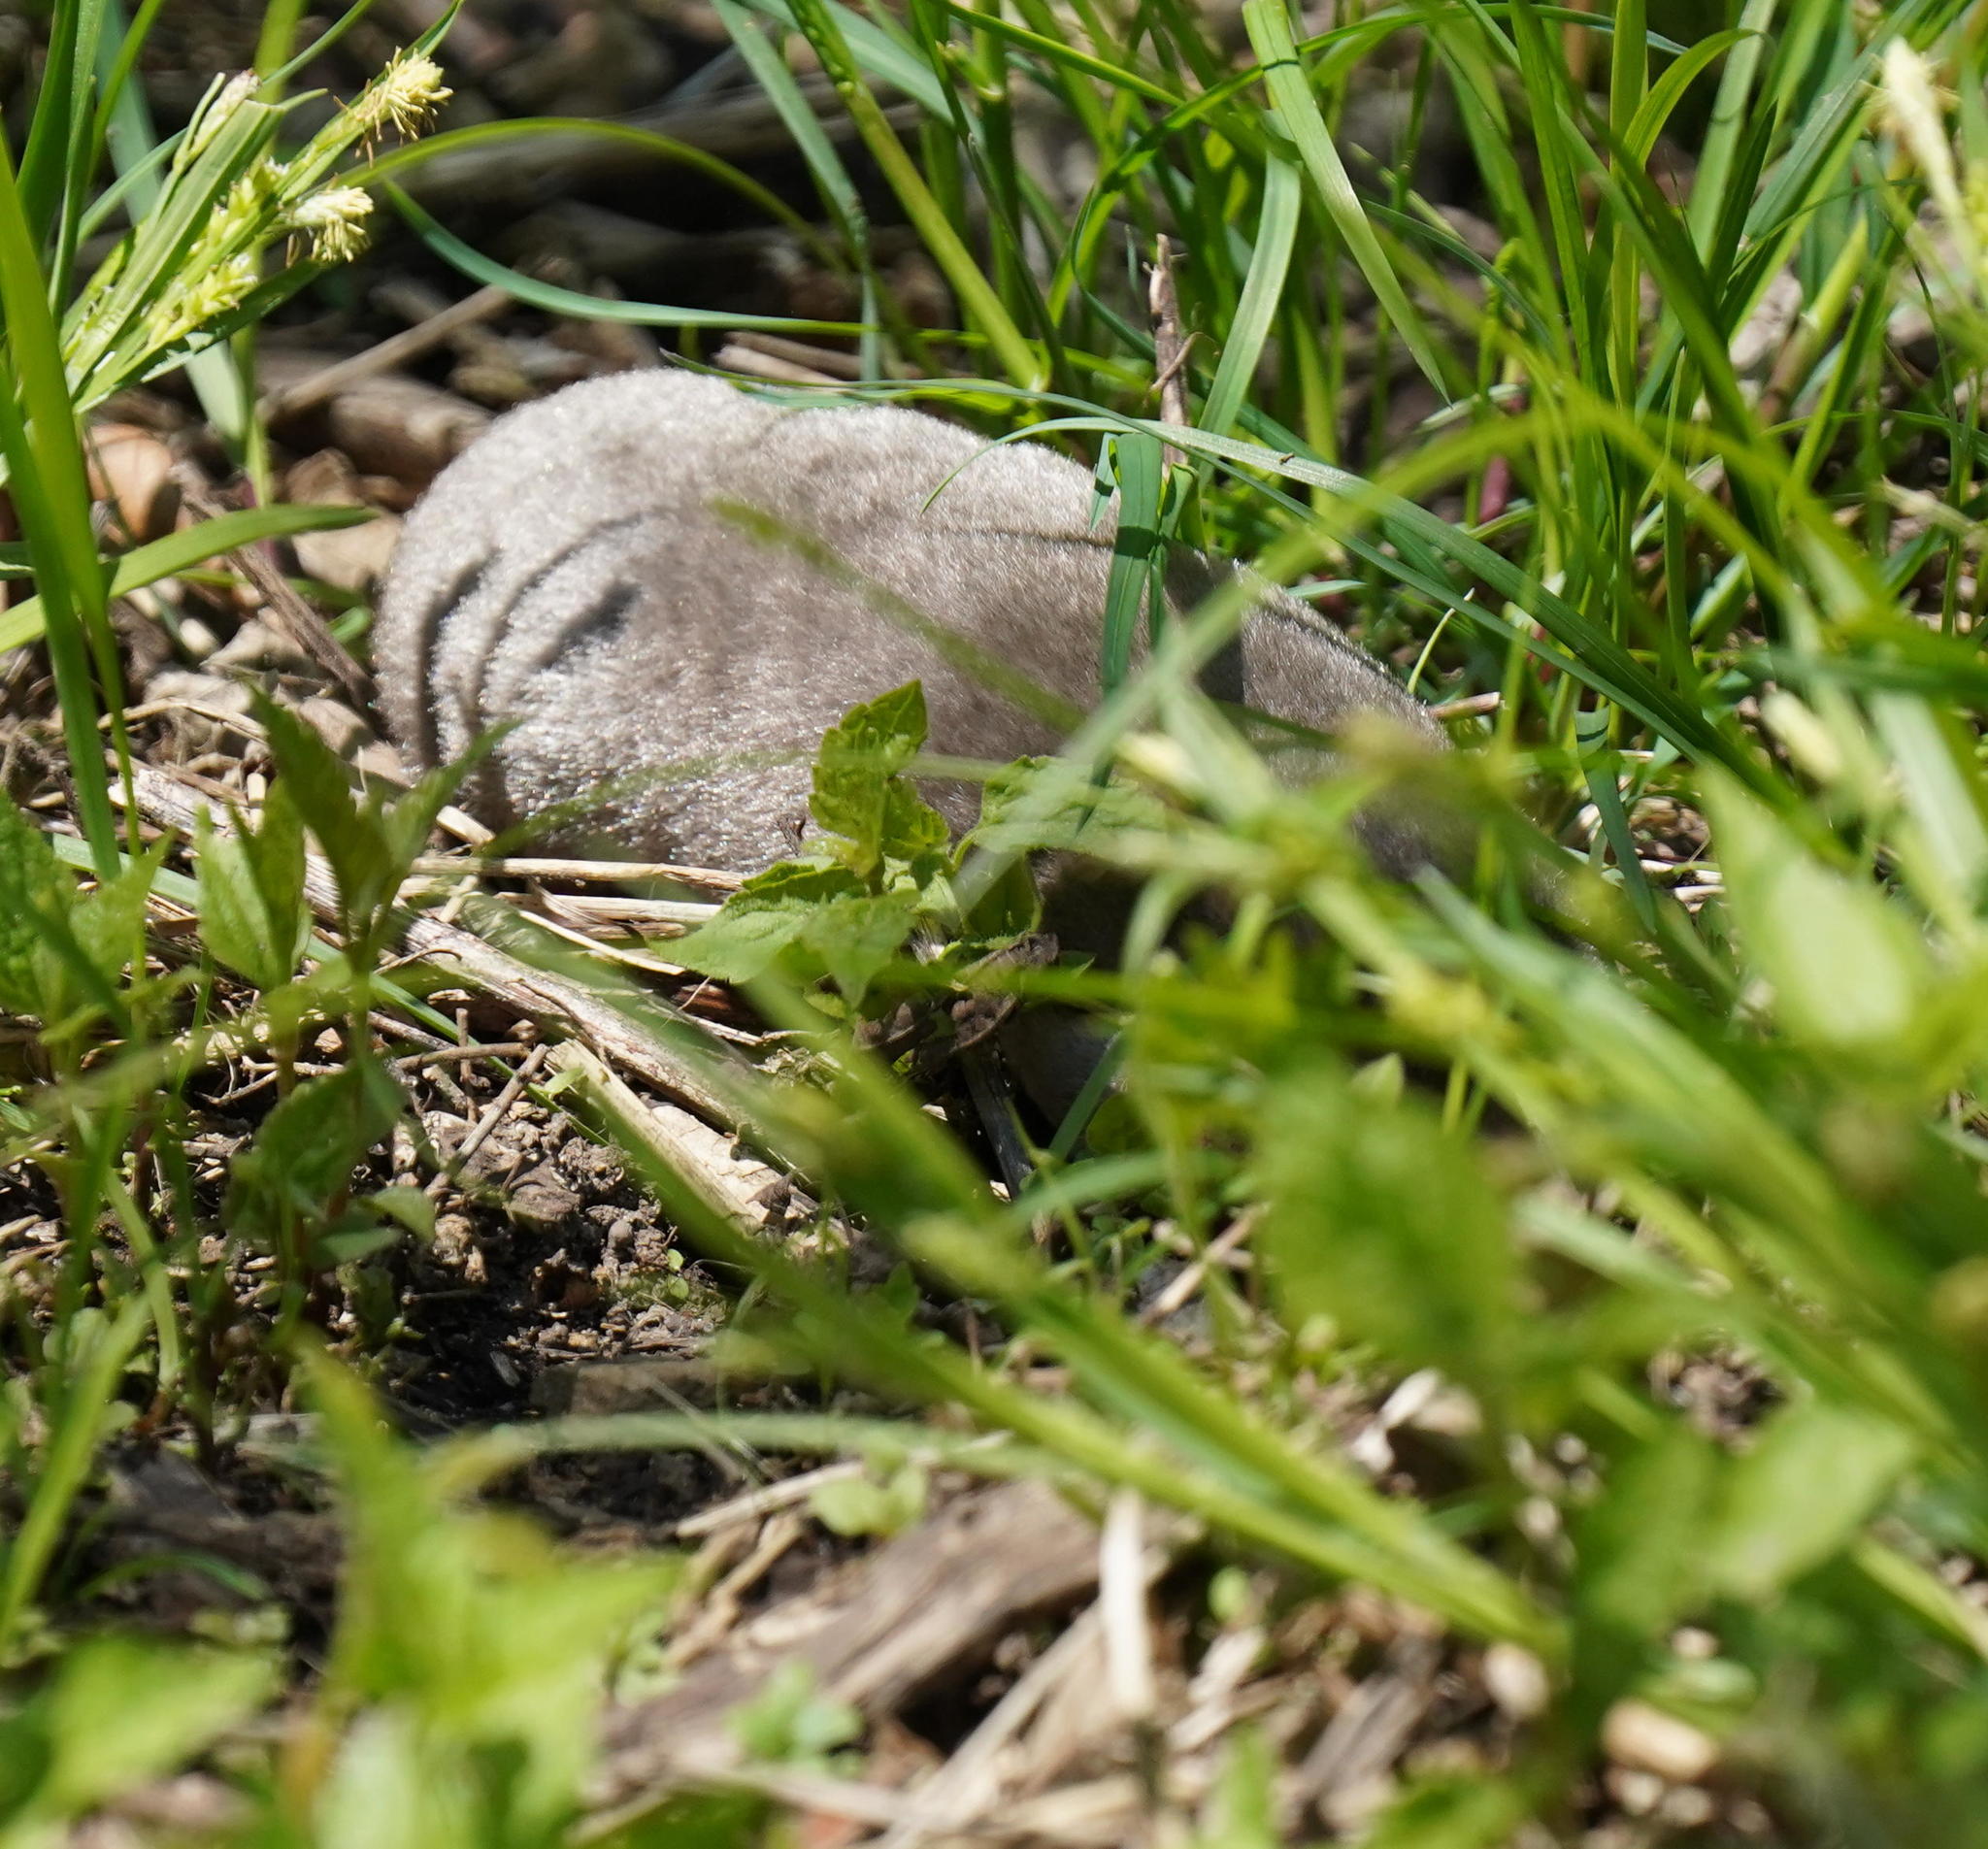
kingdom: Animalia
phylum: Chordata
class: Mammalia
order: Soricomorpha
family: Talpidae
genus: Scalopus
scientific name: Scalopus aquaticus
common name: Eastern mole
